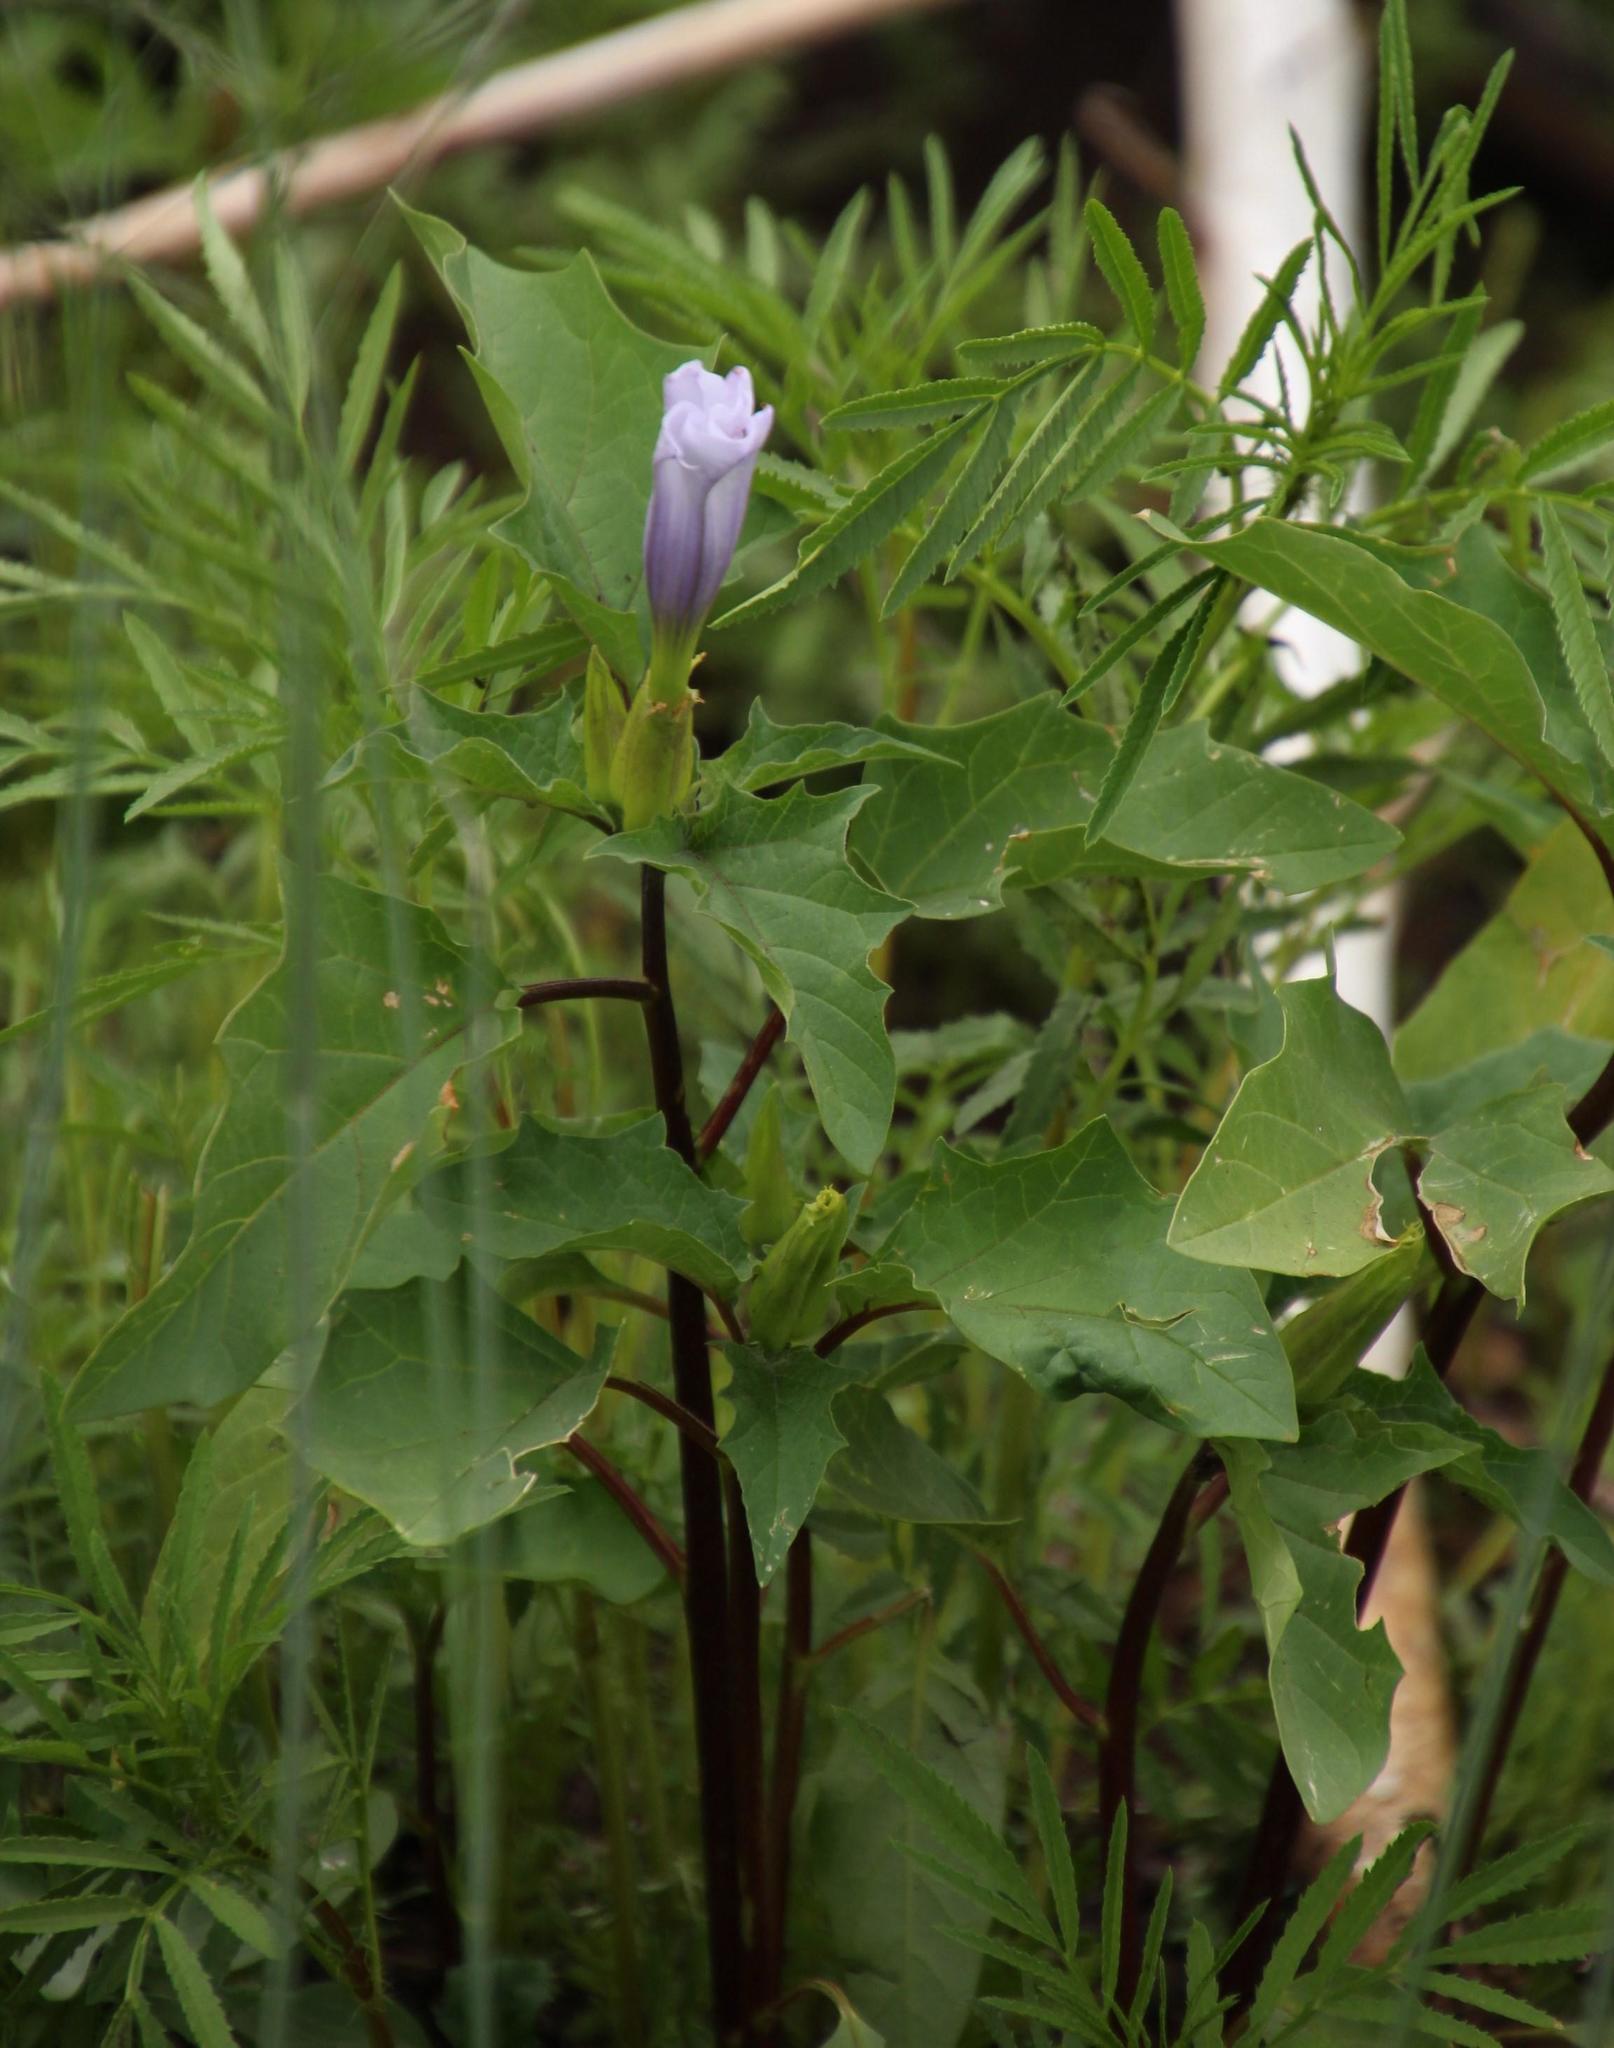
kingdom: Plantae
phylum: Tracheophyta
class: Magnoliopsida
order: Solanales
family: Solanaceae
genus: Datura
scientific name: Datura stramonium
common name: Thorn-apple
